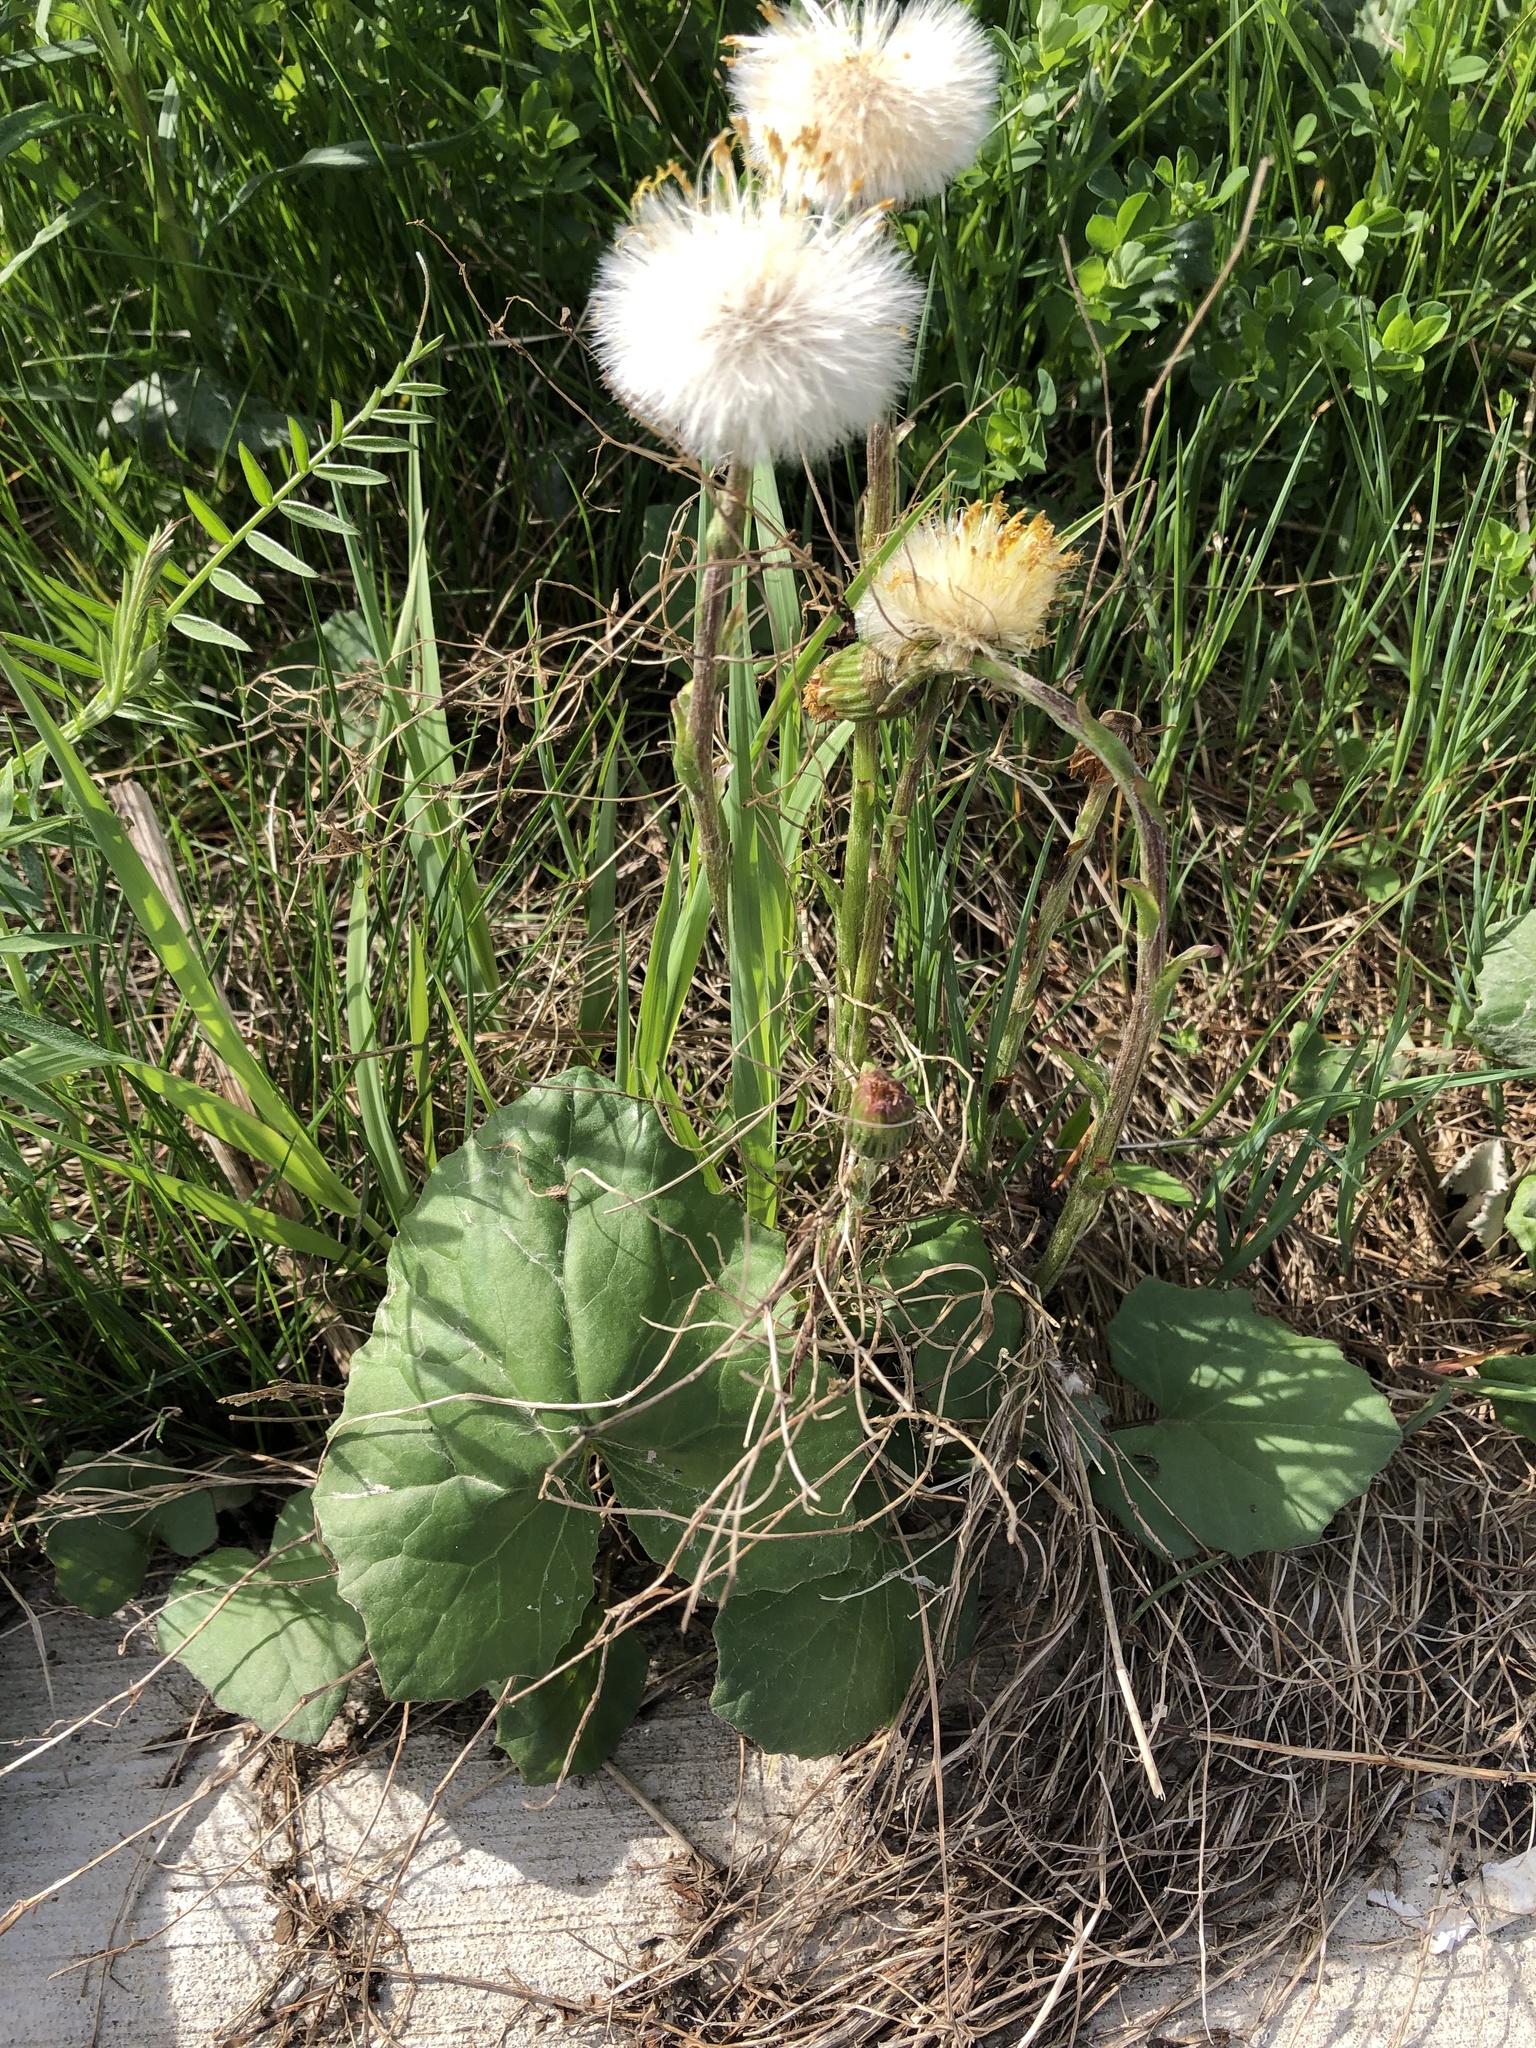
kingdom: Plantae
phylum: Tracheophyta
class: Magnoliopsida
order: Asterales
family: Asteraceae
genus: Tussilago
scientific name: Tussilago farfara
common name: Coltsfoot
